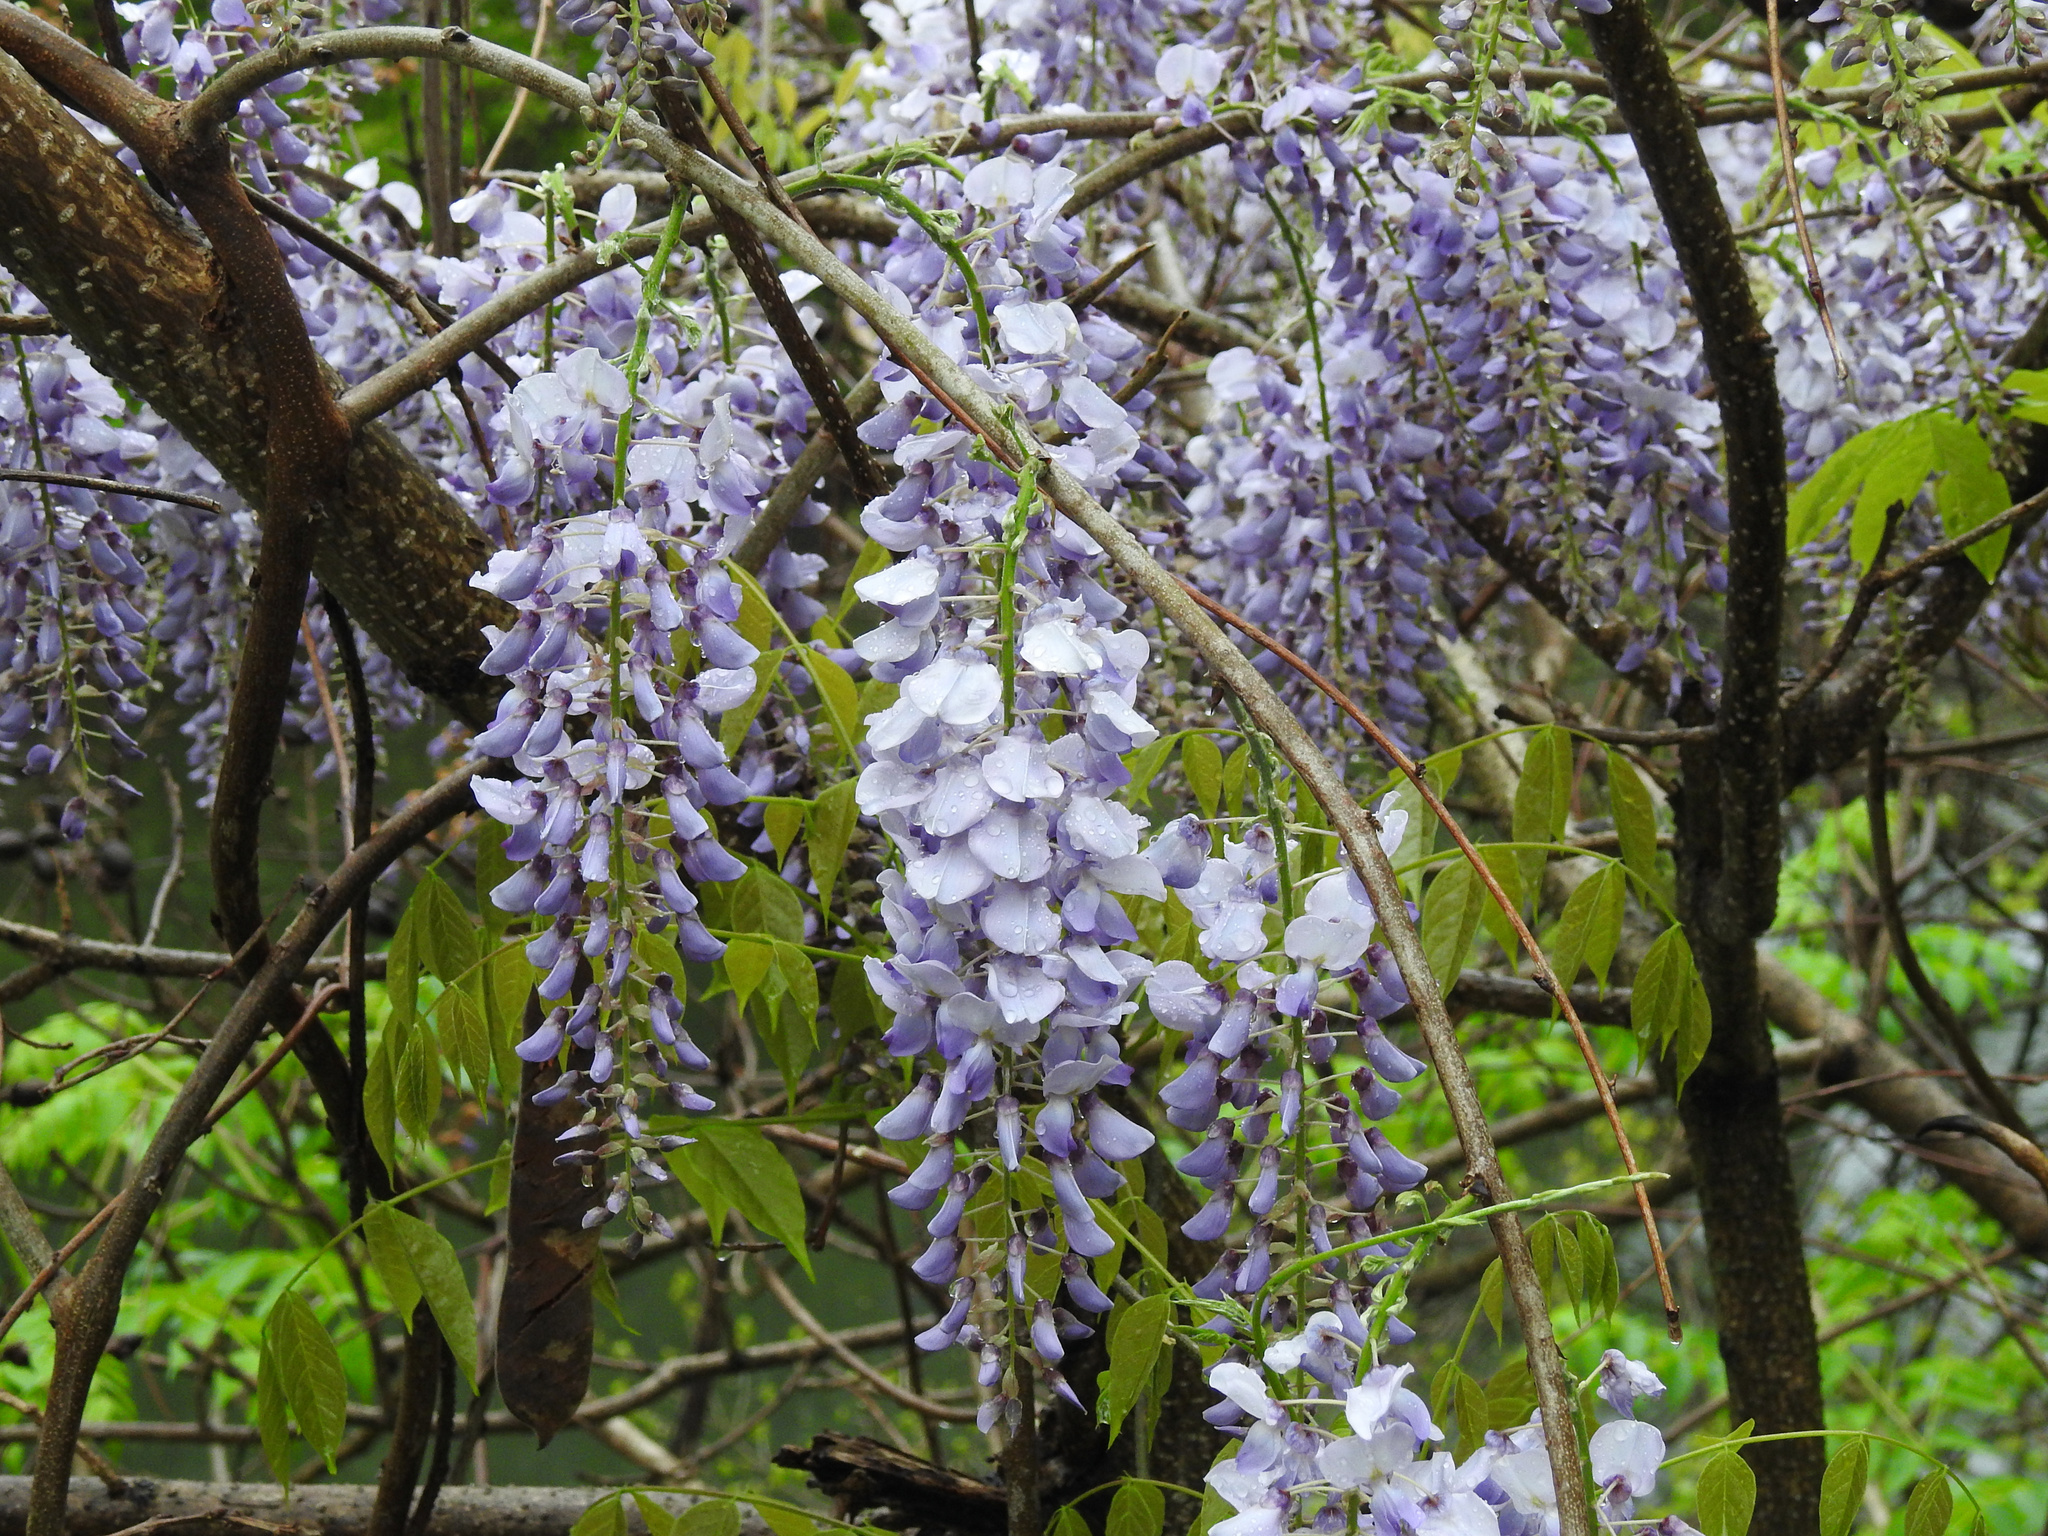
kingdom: Plantae
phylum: Tracheophyta
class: Magnoliopsida
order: Fabales
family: Fabaceae
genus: Wisteria
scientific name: Wisteria sinensis
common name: Chinese wisteria
